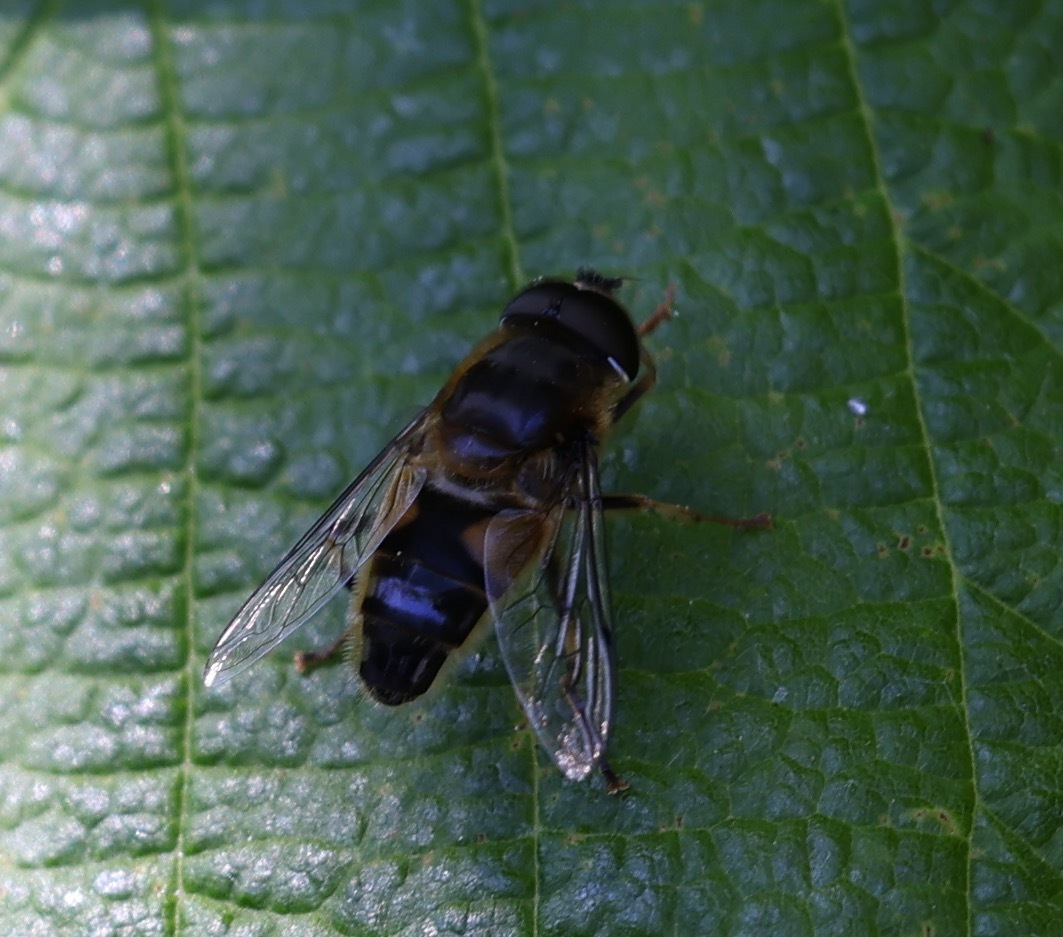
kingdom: Animalia
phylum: Arthropoda
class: Insecta
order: Diptera
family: Syrphidae
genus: Eristalis
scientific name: Eristalis pertinax
